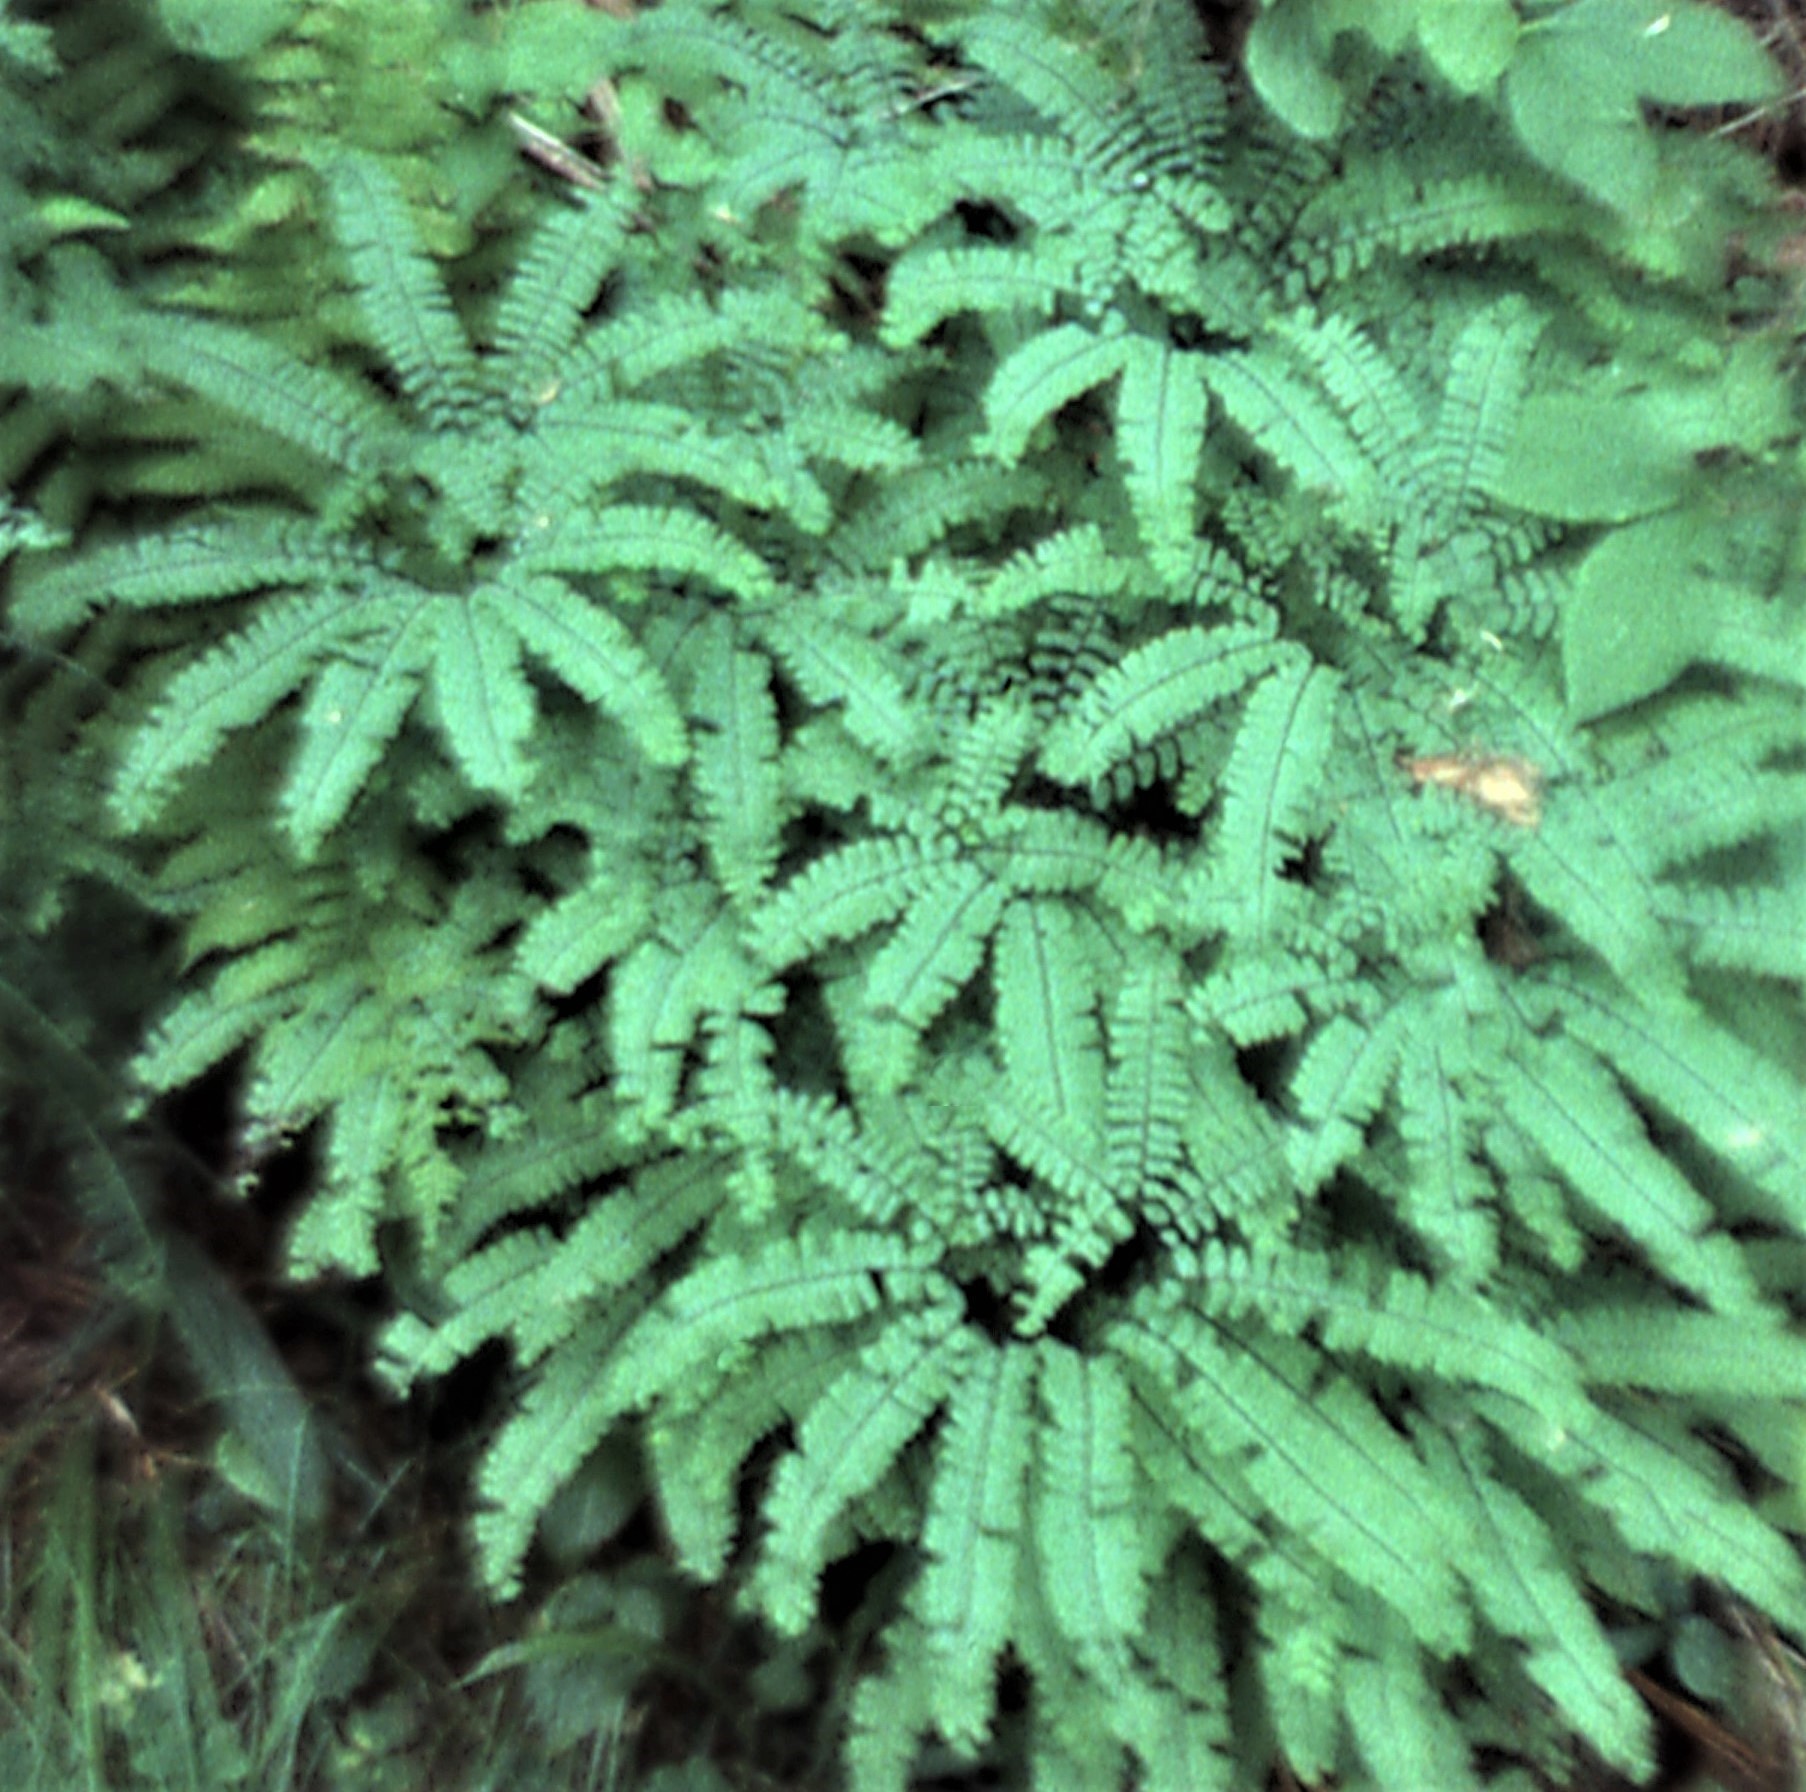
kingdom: Plantae
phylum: Tracheophyta
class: Polypodiopsida
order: Polypodiales
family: Pteridaceae
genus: Adiantum
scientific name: Adiantum pedatum
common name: Five-finger fern
